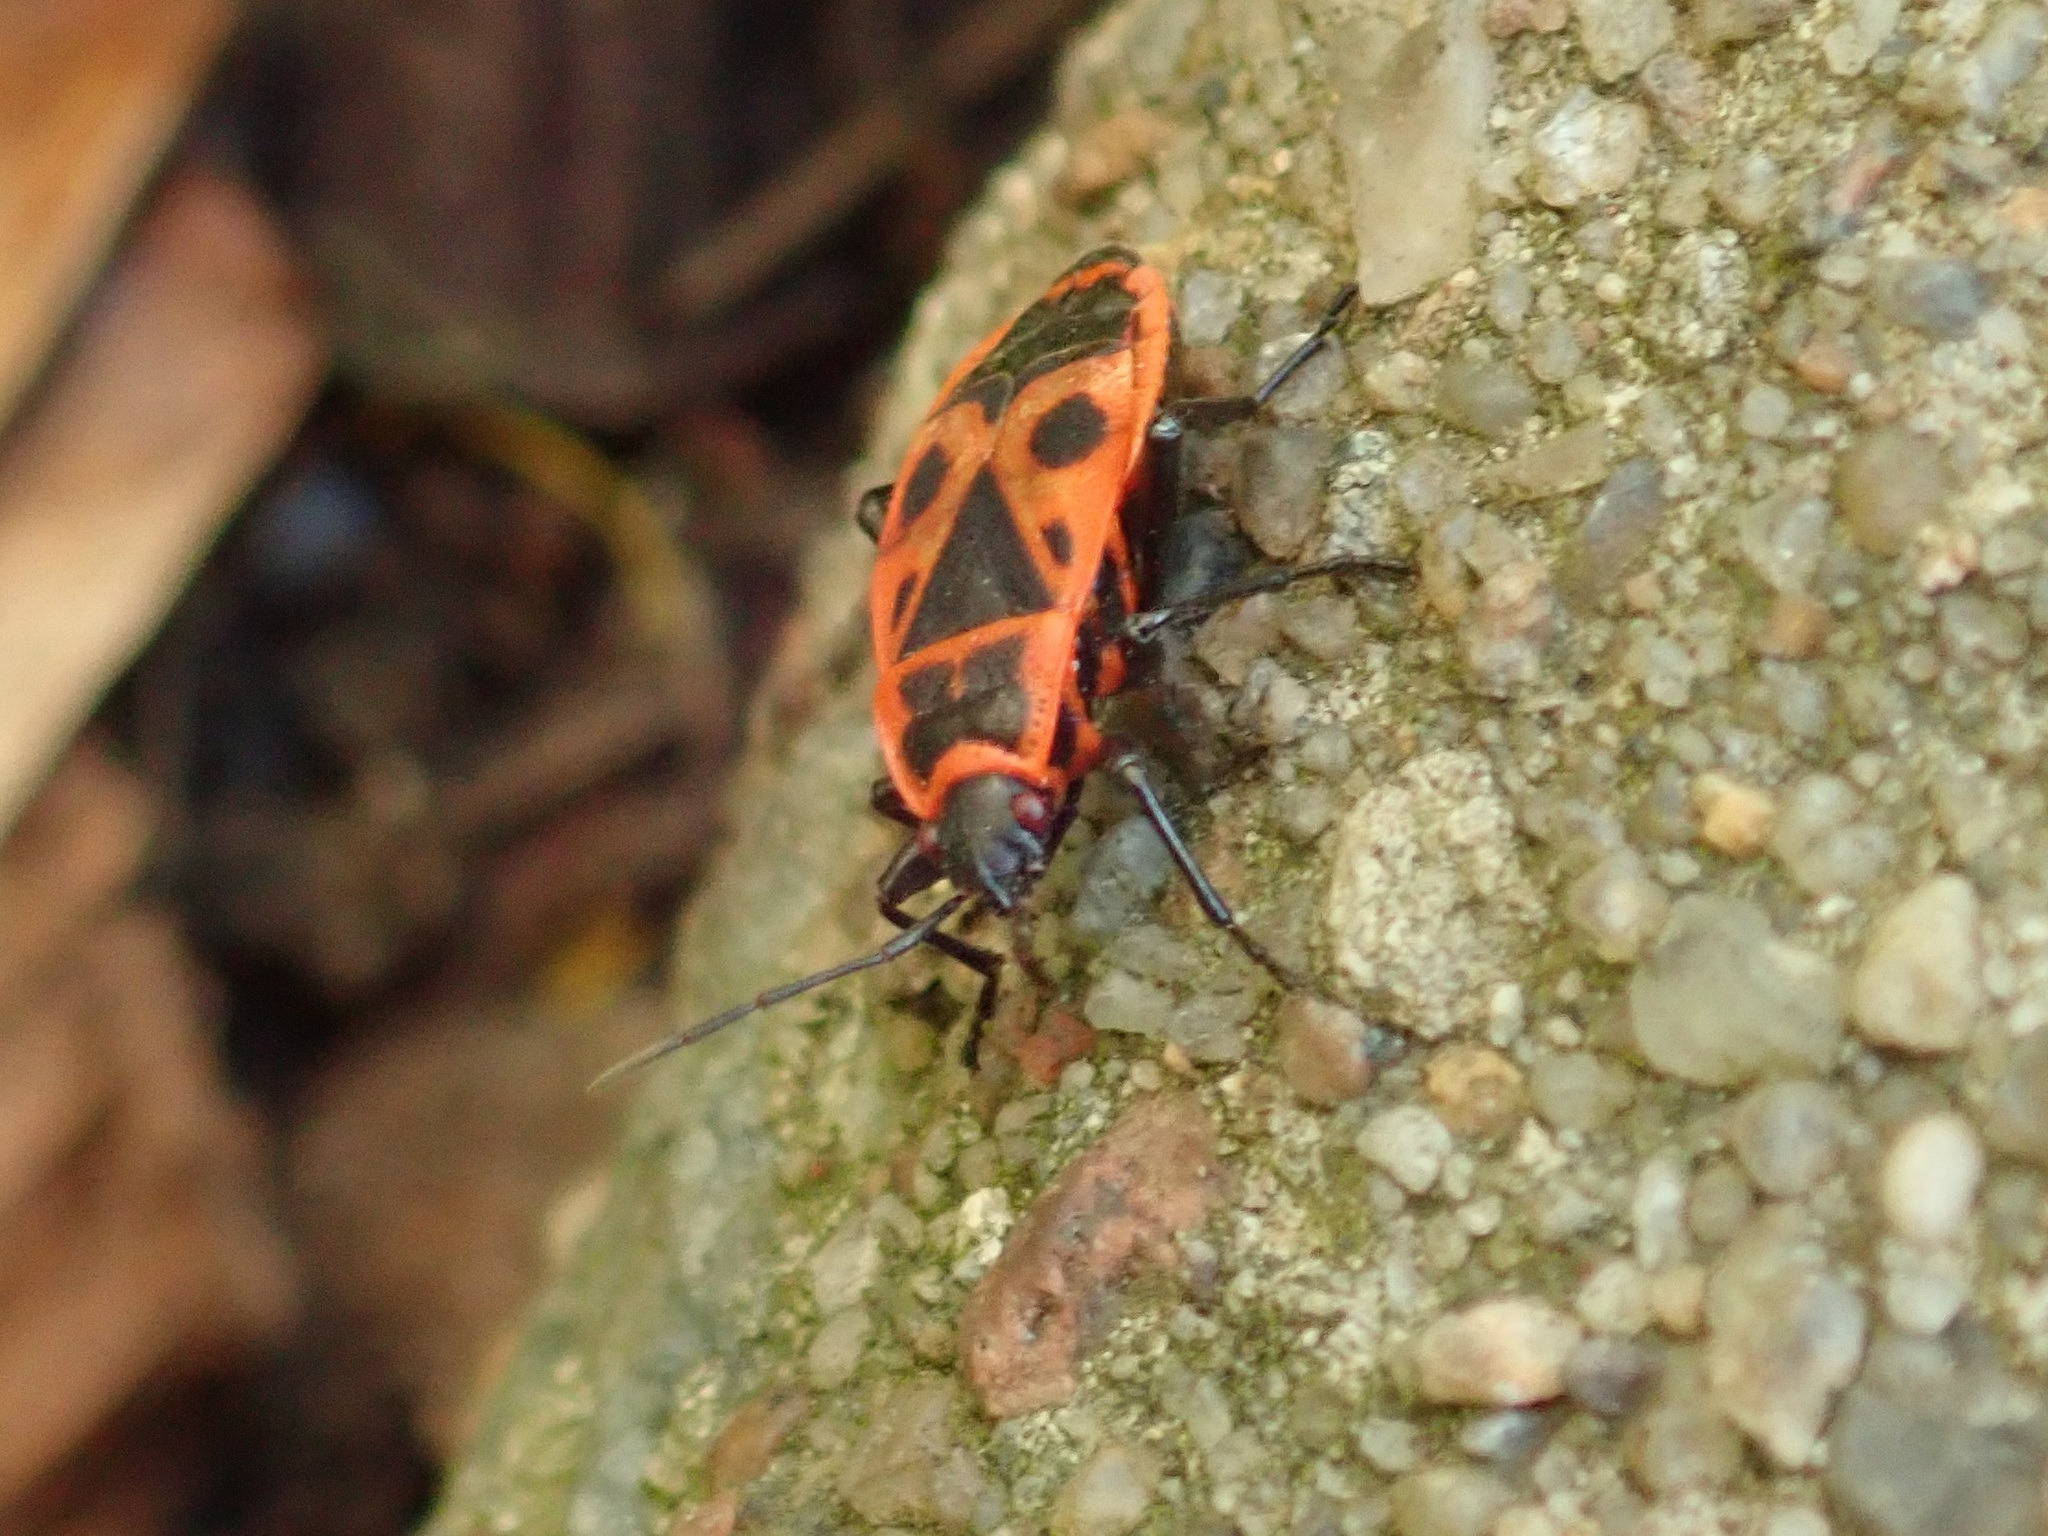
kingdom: Animalia
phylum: Arthropoda
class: Insecta
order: Hemiptera
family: Pyrrhocoridae
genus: Pyrrhocoris
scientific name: Pyrrhocoris apterus
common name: Firebug
